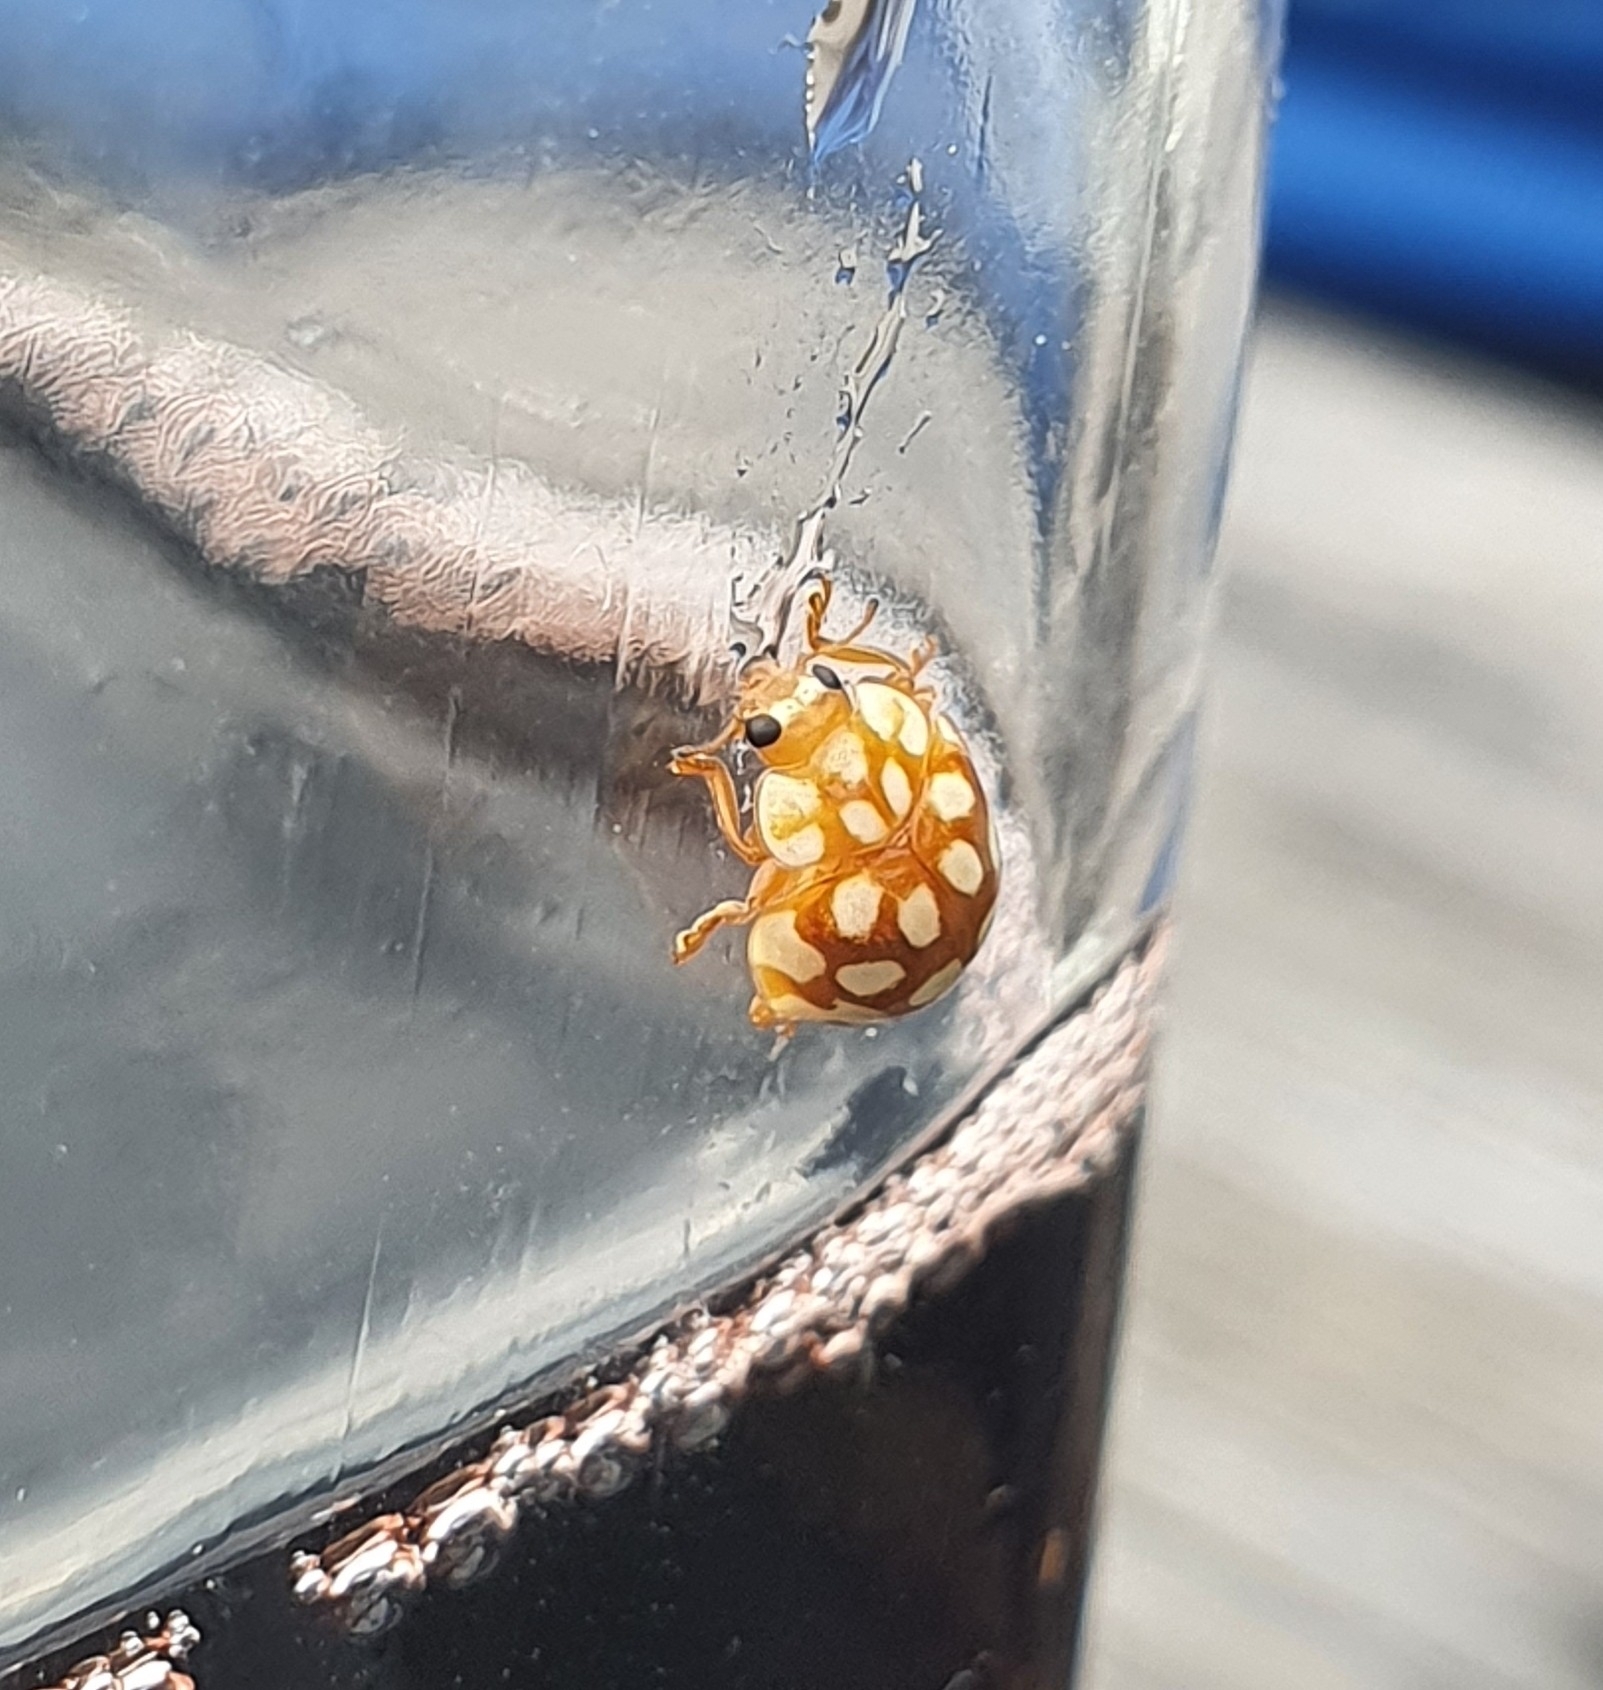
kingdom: Animalia
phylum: Arthropoda
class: Insecta
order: Coleoptera
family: Coccinellidae
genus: Sospita
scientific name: Sospita vigintiguttata
